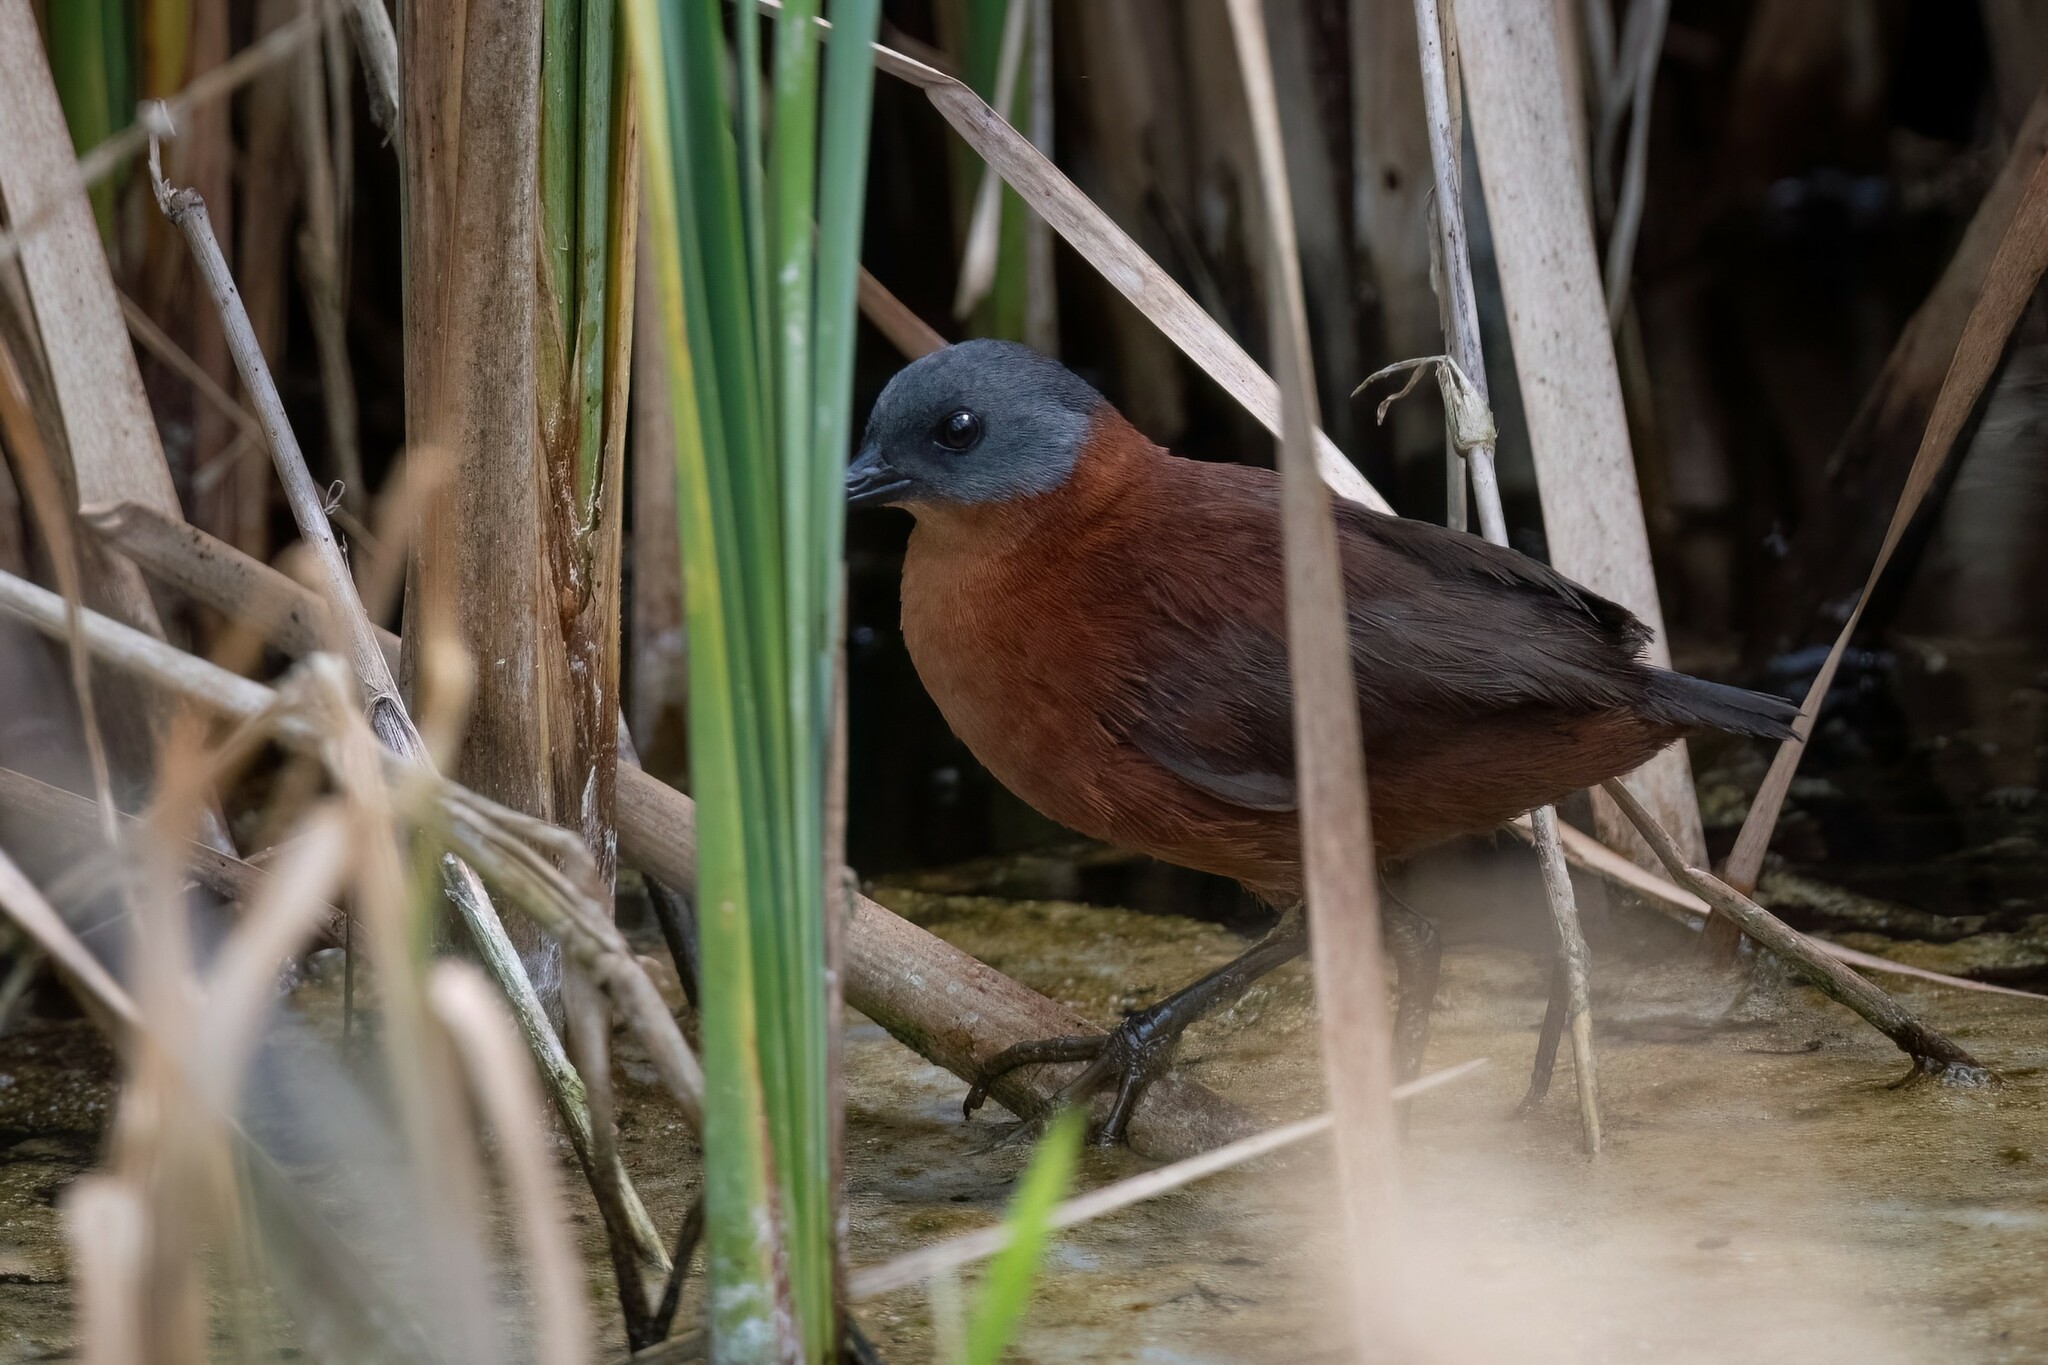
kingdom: Animalia
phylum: Chordata
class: Aves
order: Gruiformes
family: Rallidae
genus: Laterallus
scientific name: Laterallus ruber
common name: Ruddy crake
